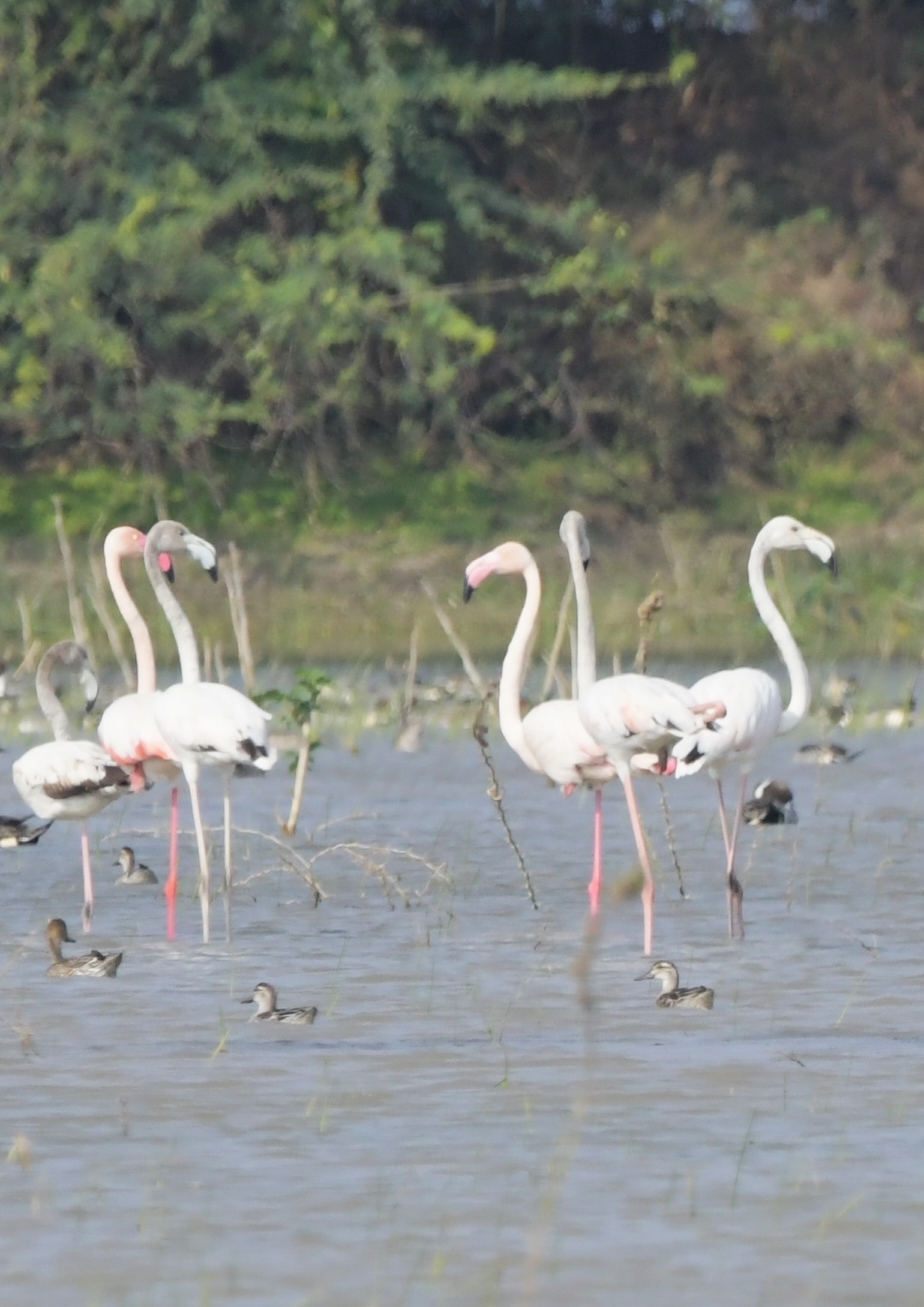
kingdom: Animalia
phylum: Chordata
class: Aves
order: Phoenicopteriformes
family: Phoenicopteridae
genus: Phoenicopterus
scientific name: Phoenicopterus roseus
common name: Greater flamingo
